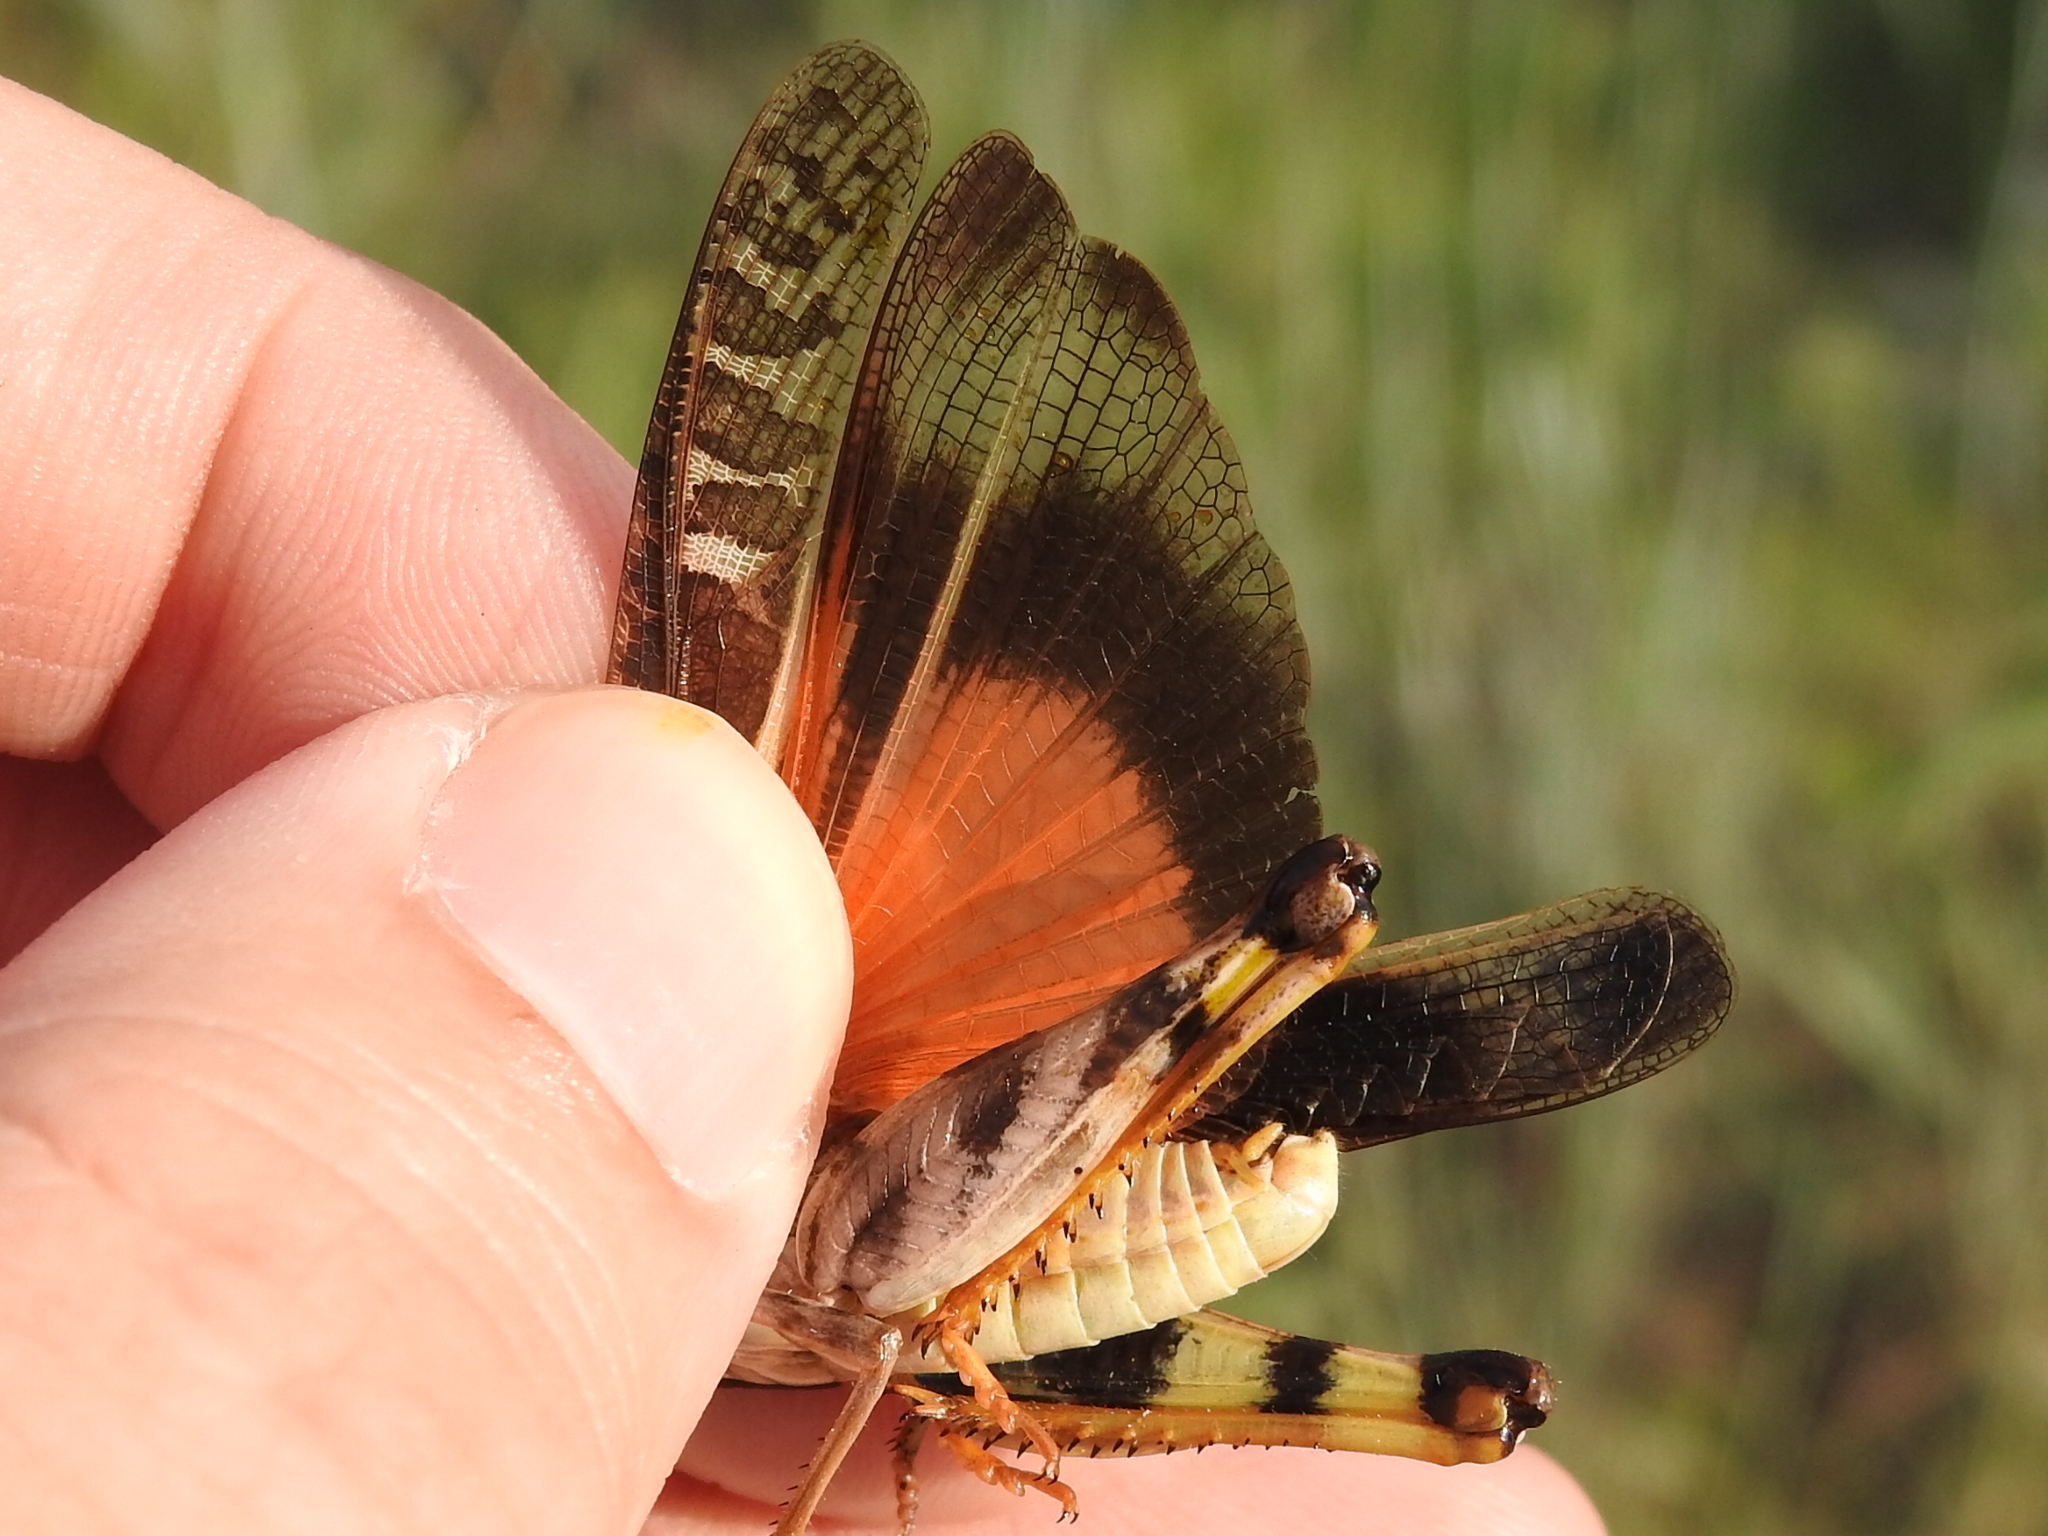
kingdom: Animalia
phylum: Arthropoda
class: Insecta
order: Orthoptera
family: Acrididae
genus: Hippiscus
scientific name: Hippiscus ocelote
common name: Wrinkled grasshopper
